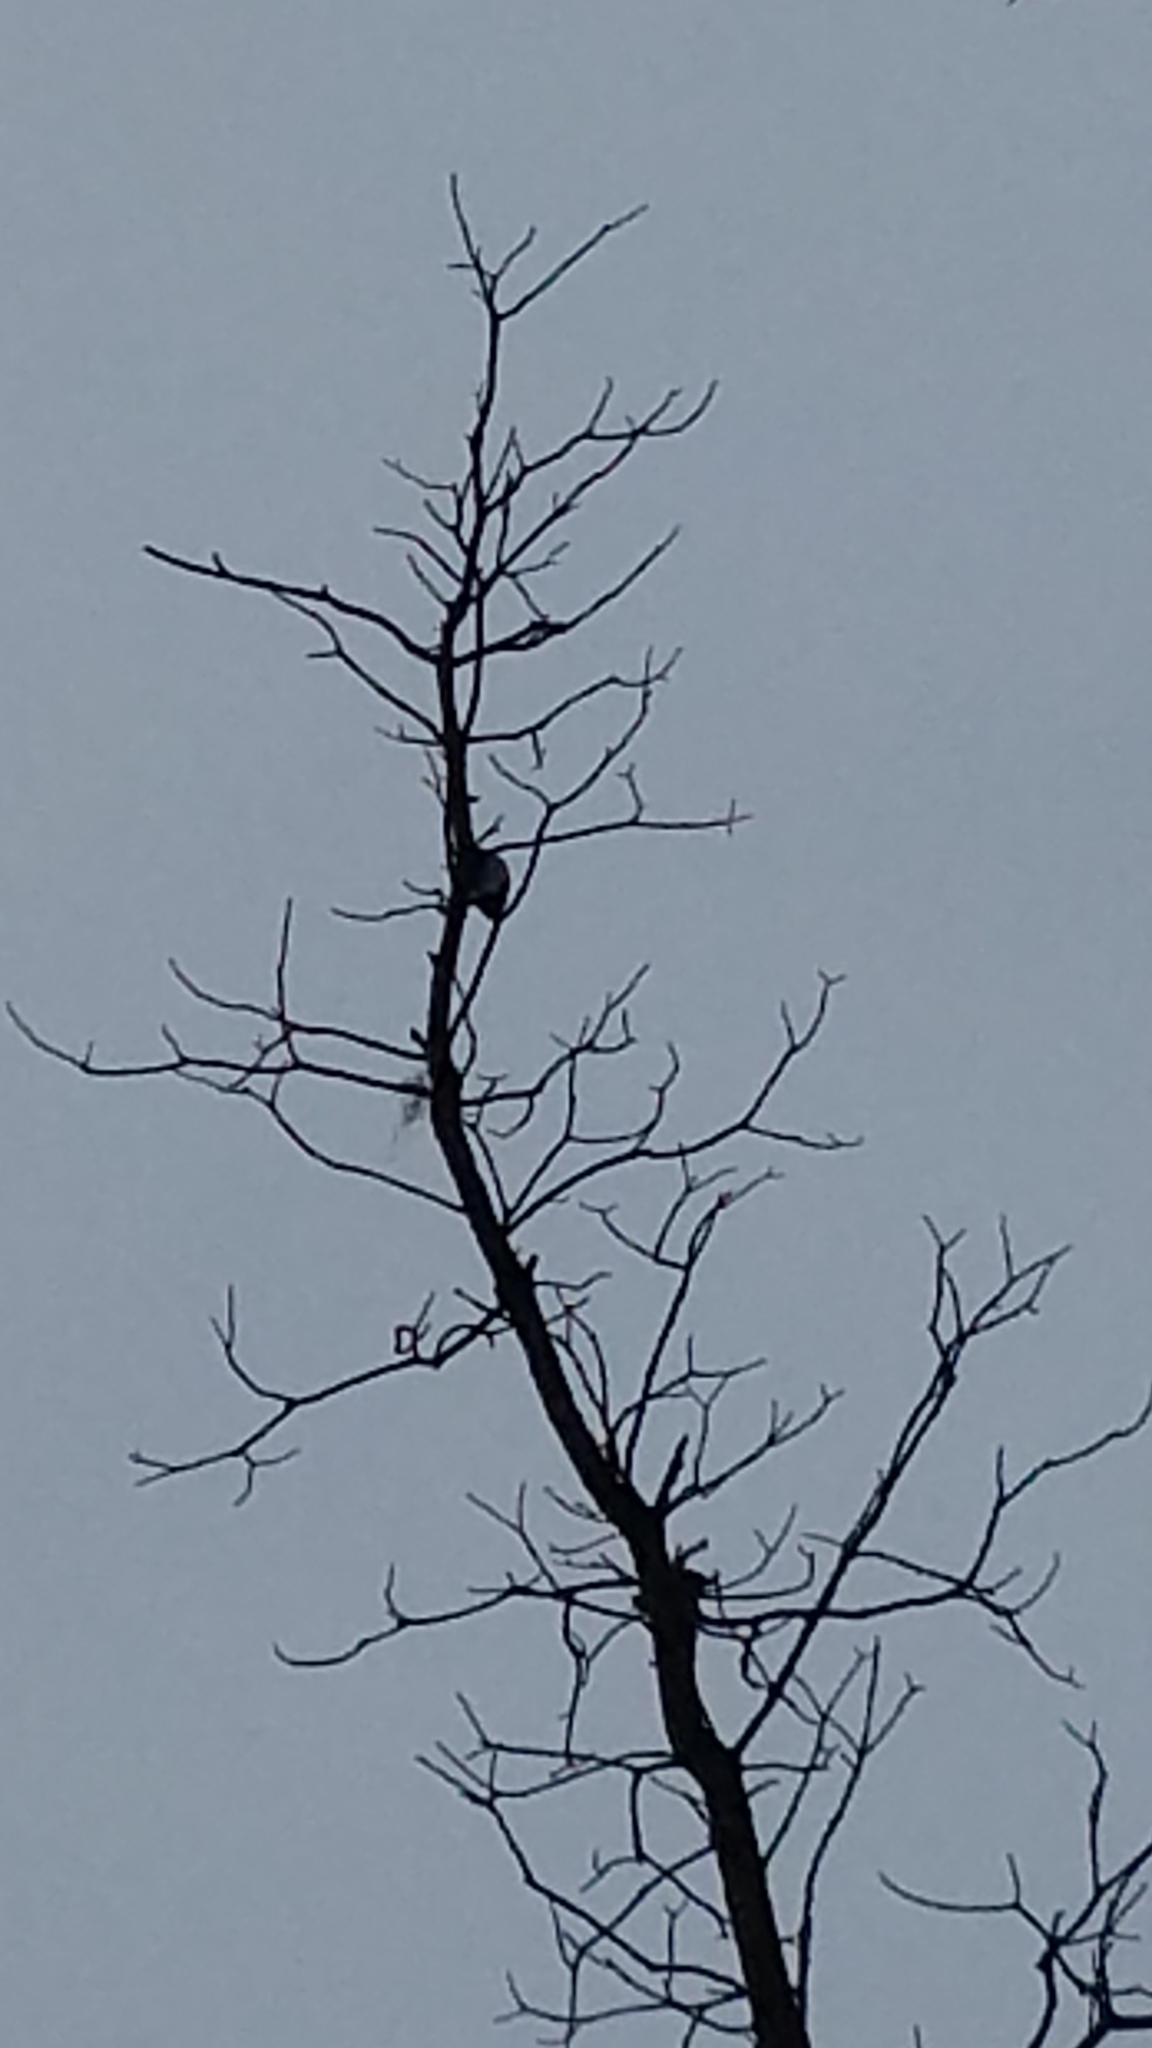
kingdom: Animalia
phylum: Chordata
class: Aves
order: Piciformes
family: Picidae
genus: Leuconotopicus
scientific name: Leuconotopicus villosus
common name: Hairy woodpecker
